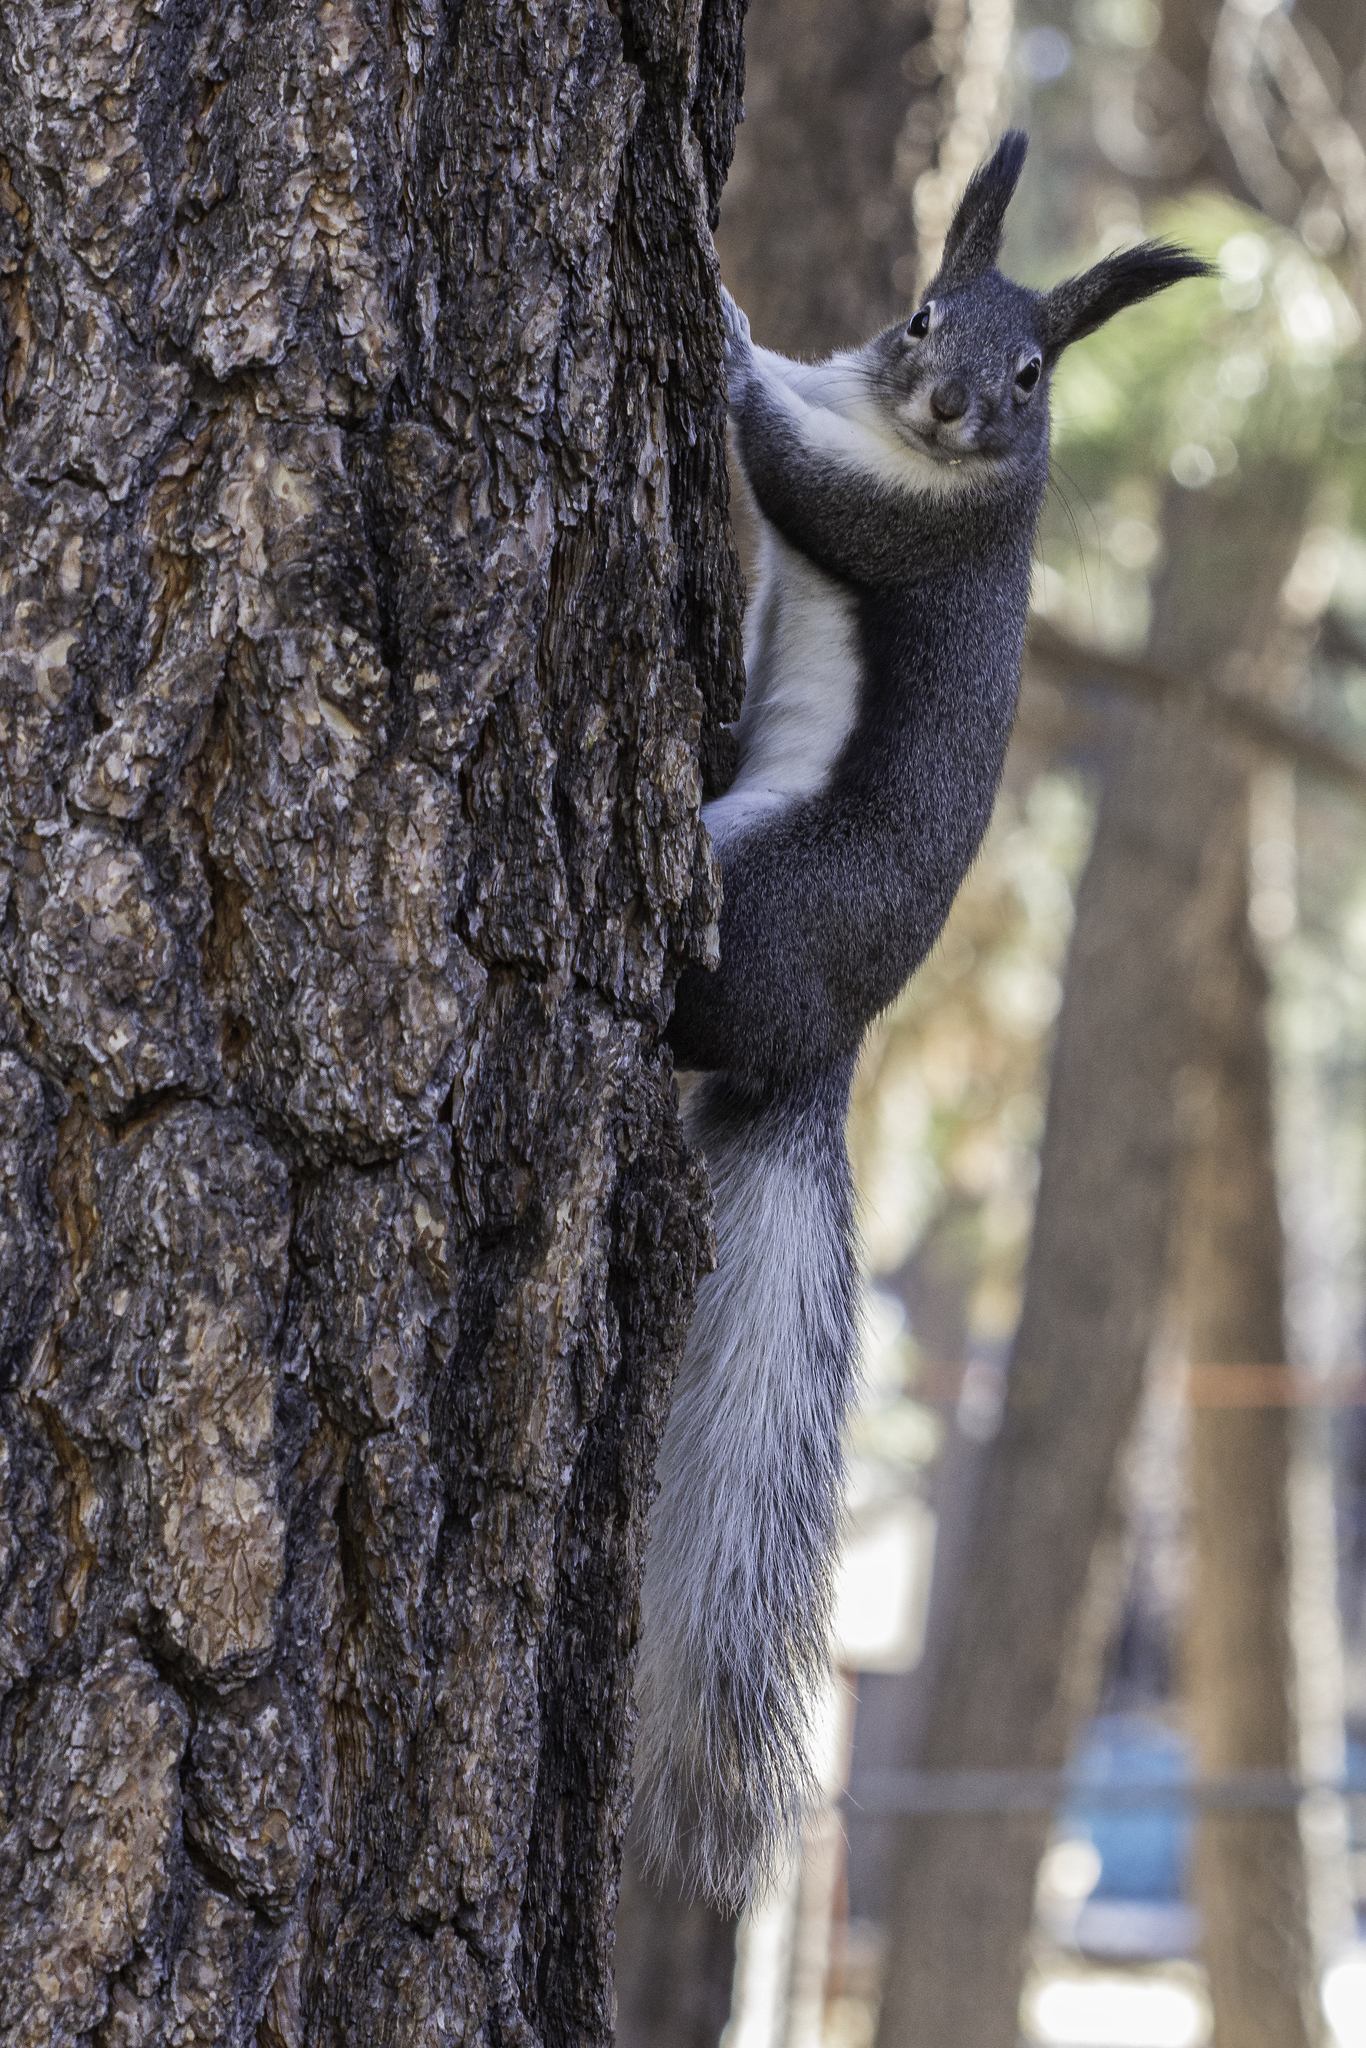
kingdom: Animalia
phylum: Chordata
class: Mammalia
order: Rodentia
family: Sciuridae
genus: Sciurus
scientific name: Sciurus aberti
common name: Abert's squirrel
